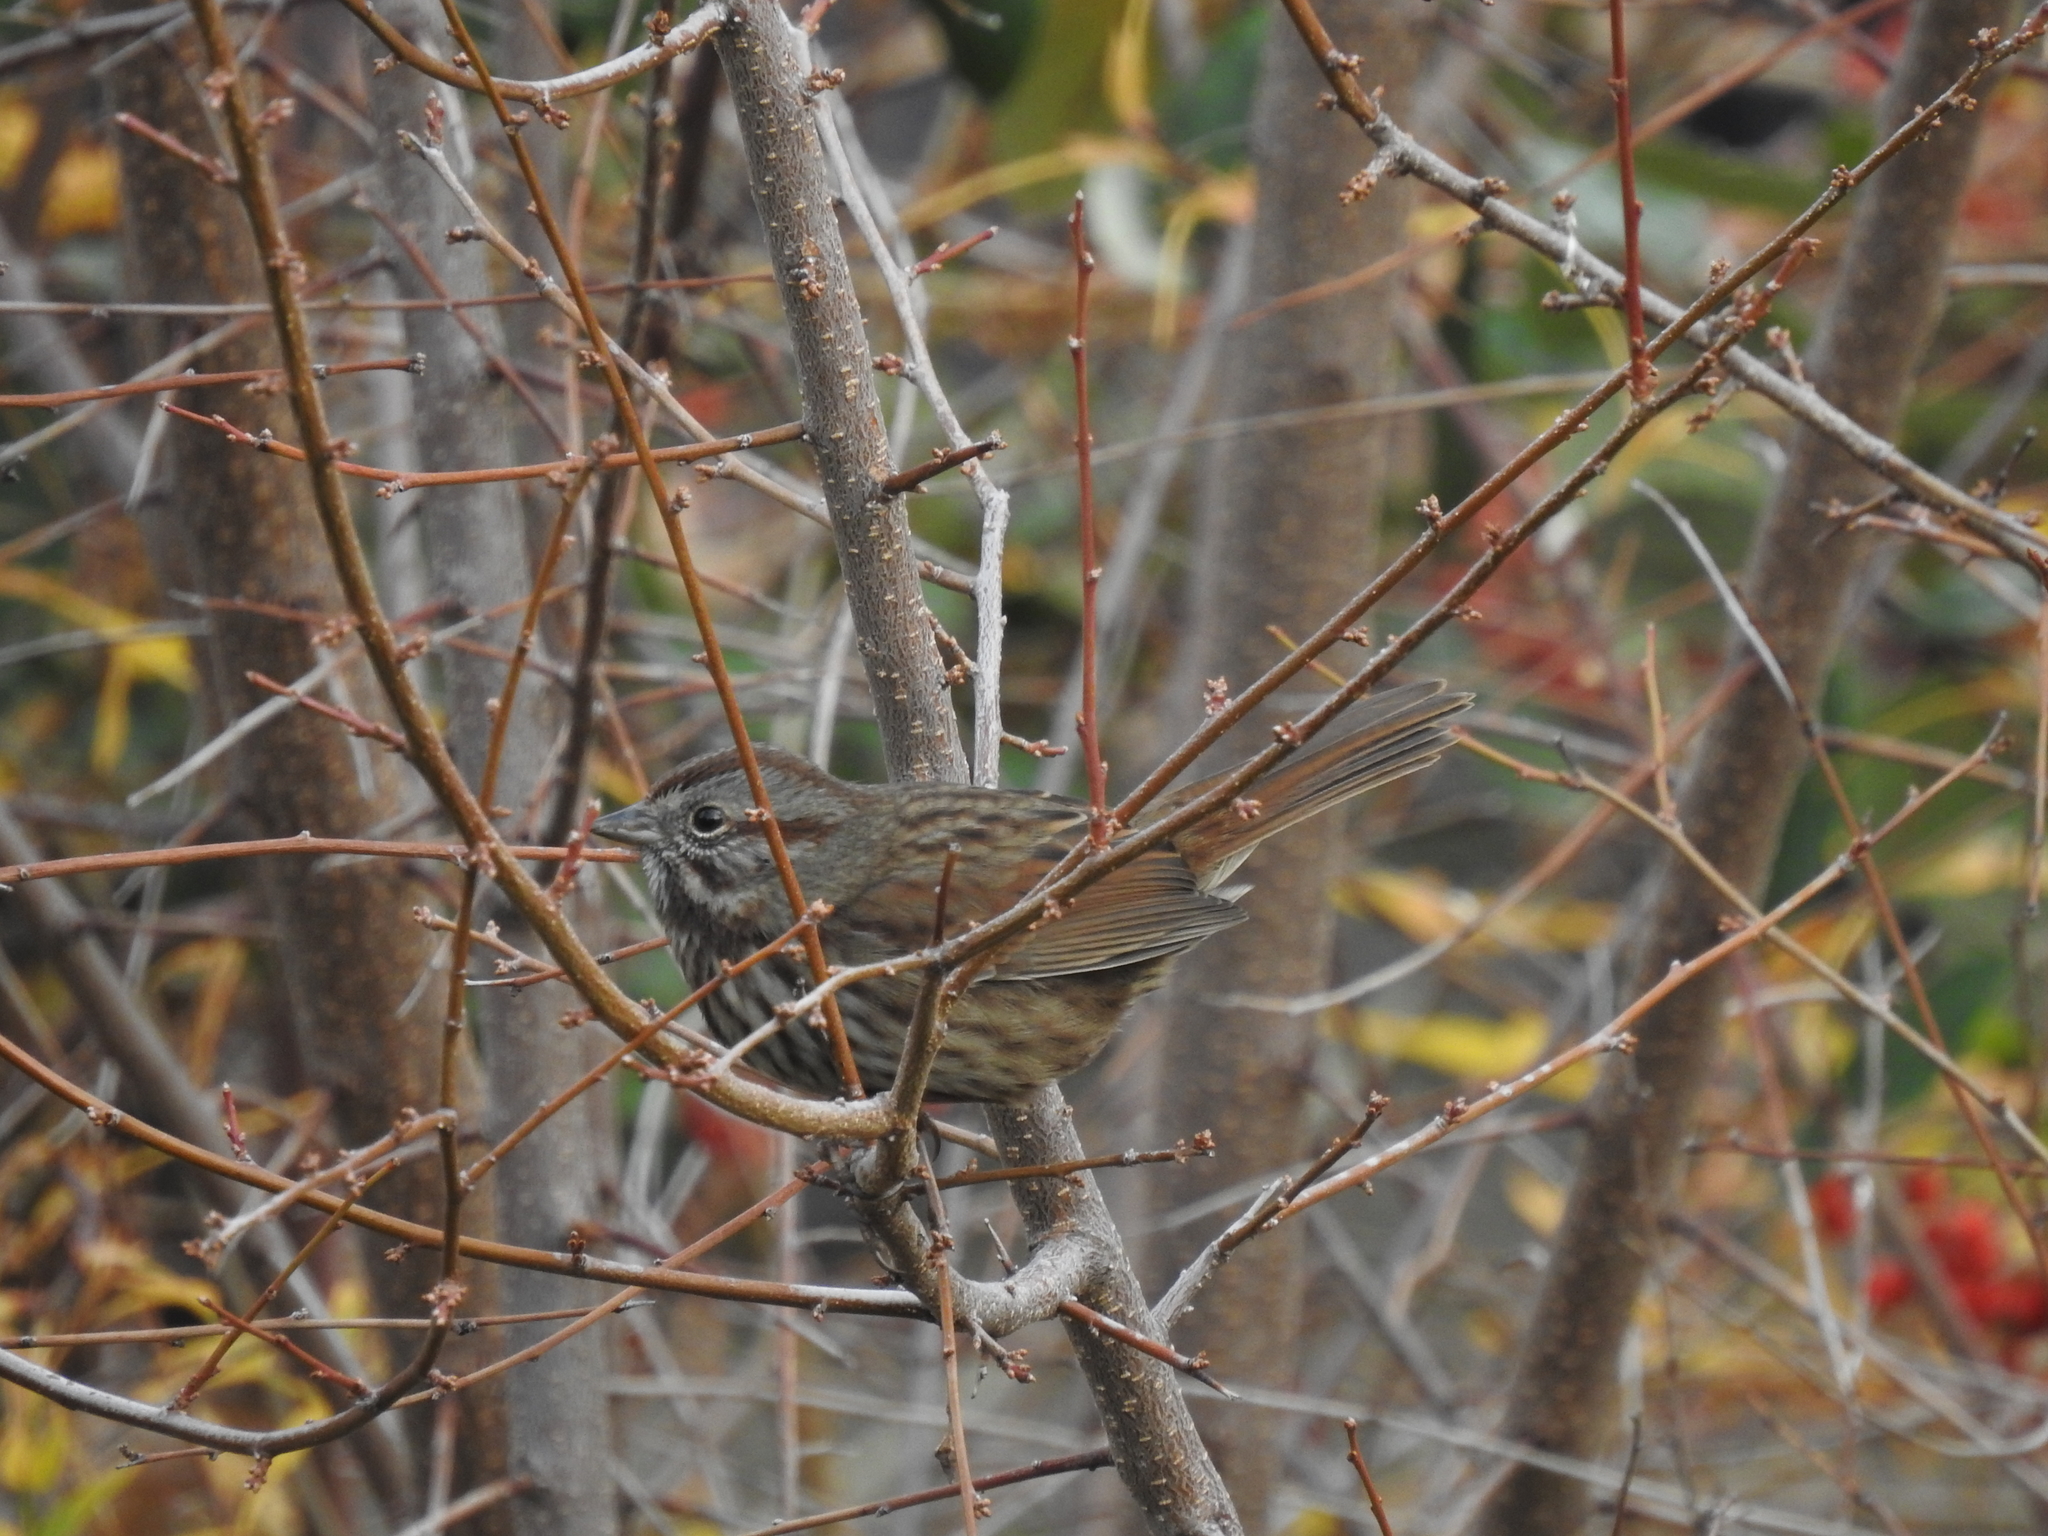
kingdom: Animalia
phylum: Chordata
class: Aves
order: Passeriformes
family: Passerellidae
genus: Melospiza
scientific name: Melospiza melodia
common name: Song sparrow
